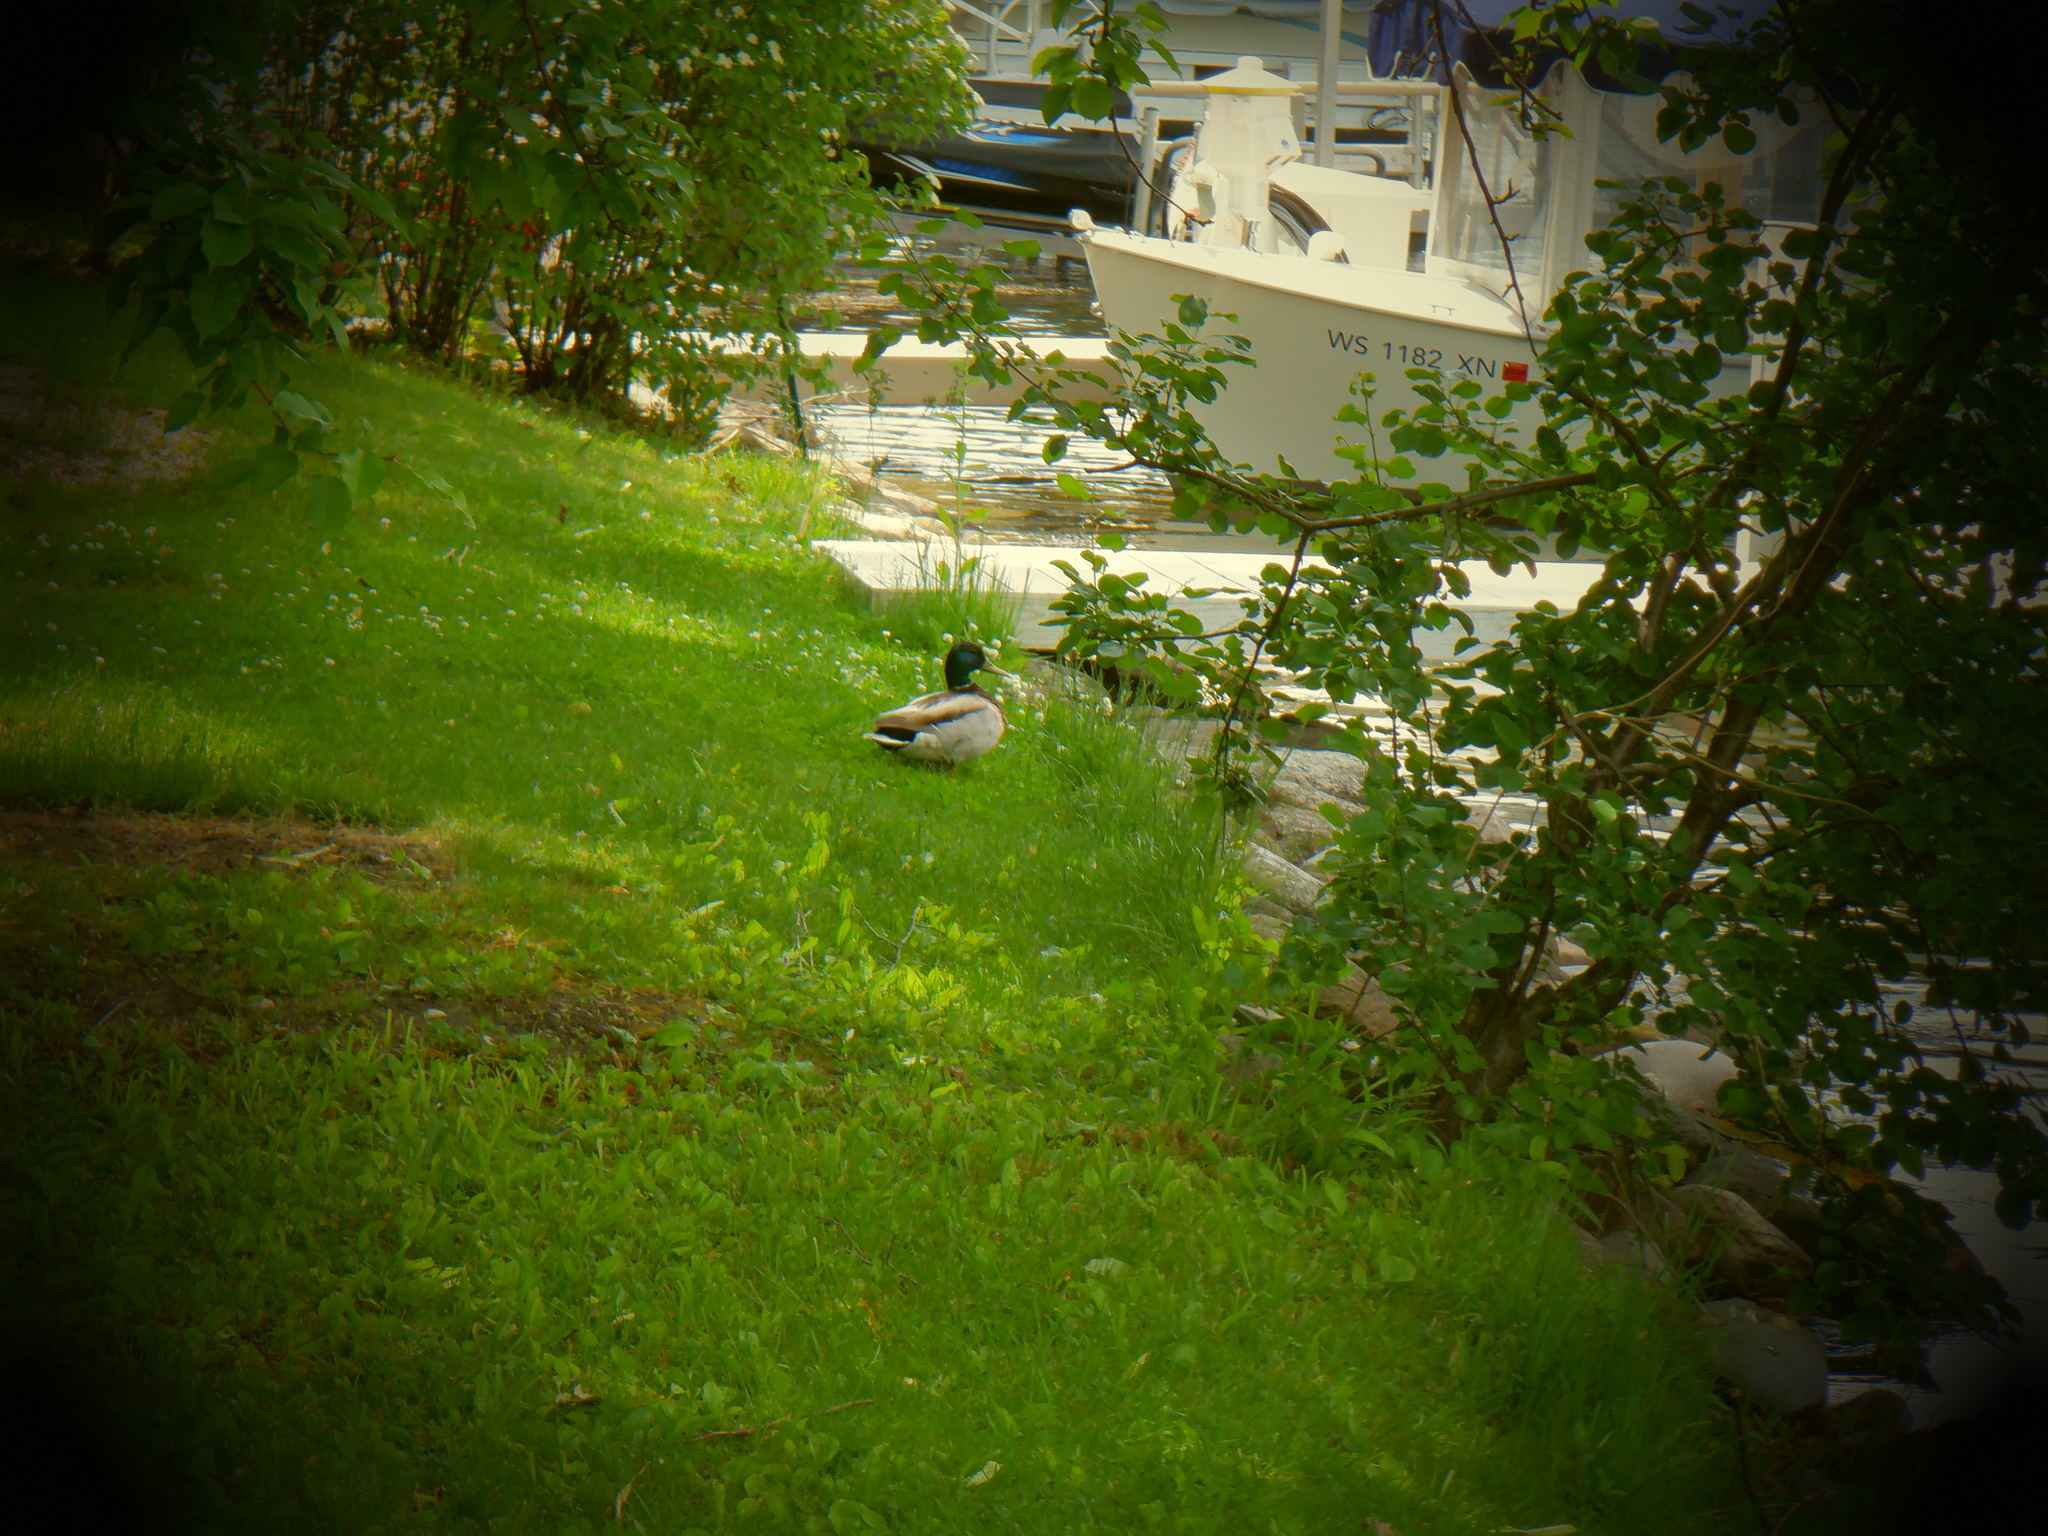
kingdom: Animalia
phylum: Chordata
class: Aves
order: Anseriformes
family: Anatidae
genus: Anas
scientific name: Anas platyrhynchos
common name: Mallard
